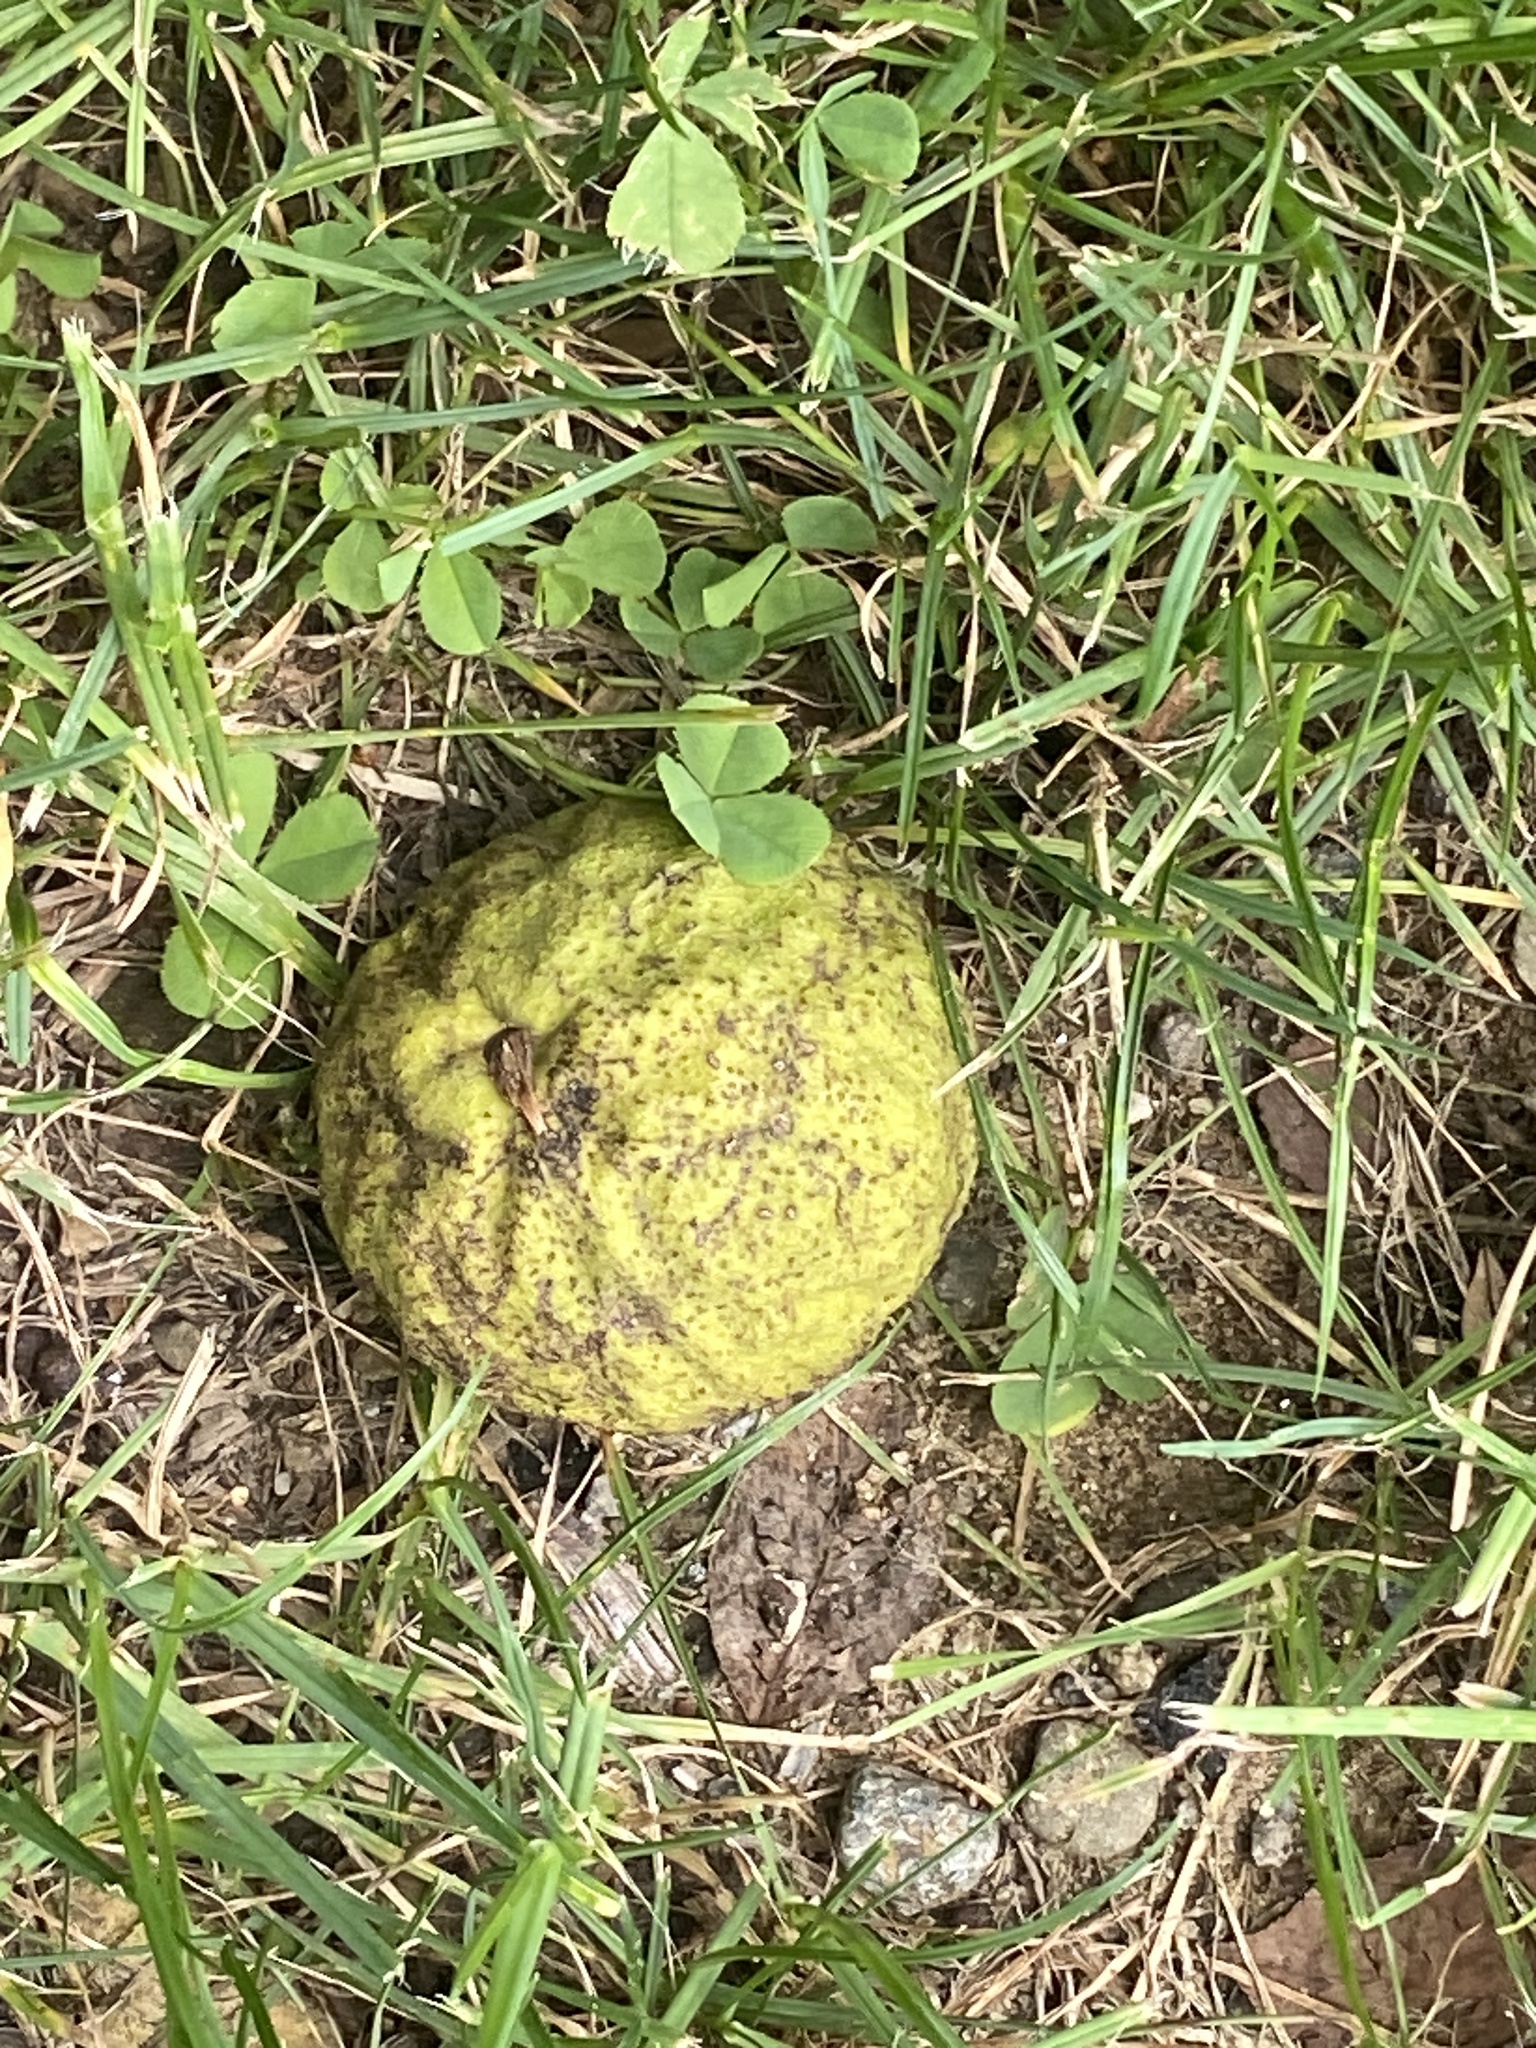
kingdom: Plantae
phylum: Tracheophyta
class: Magnoliopsida
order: Fagales
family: Juglandaceae
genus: Juglans
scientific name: Juglans nigra
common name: Black walnut
